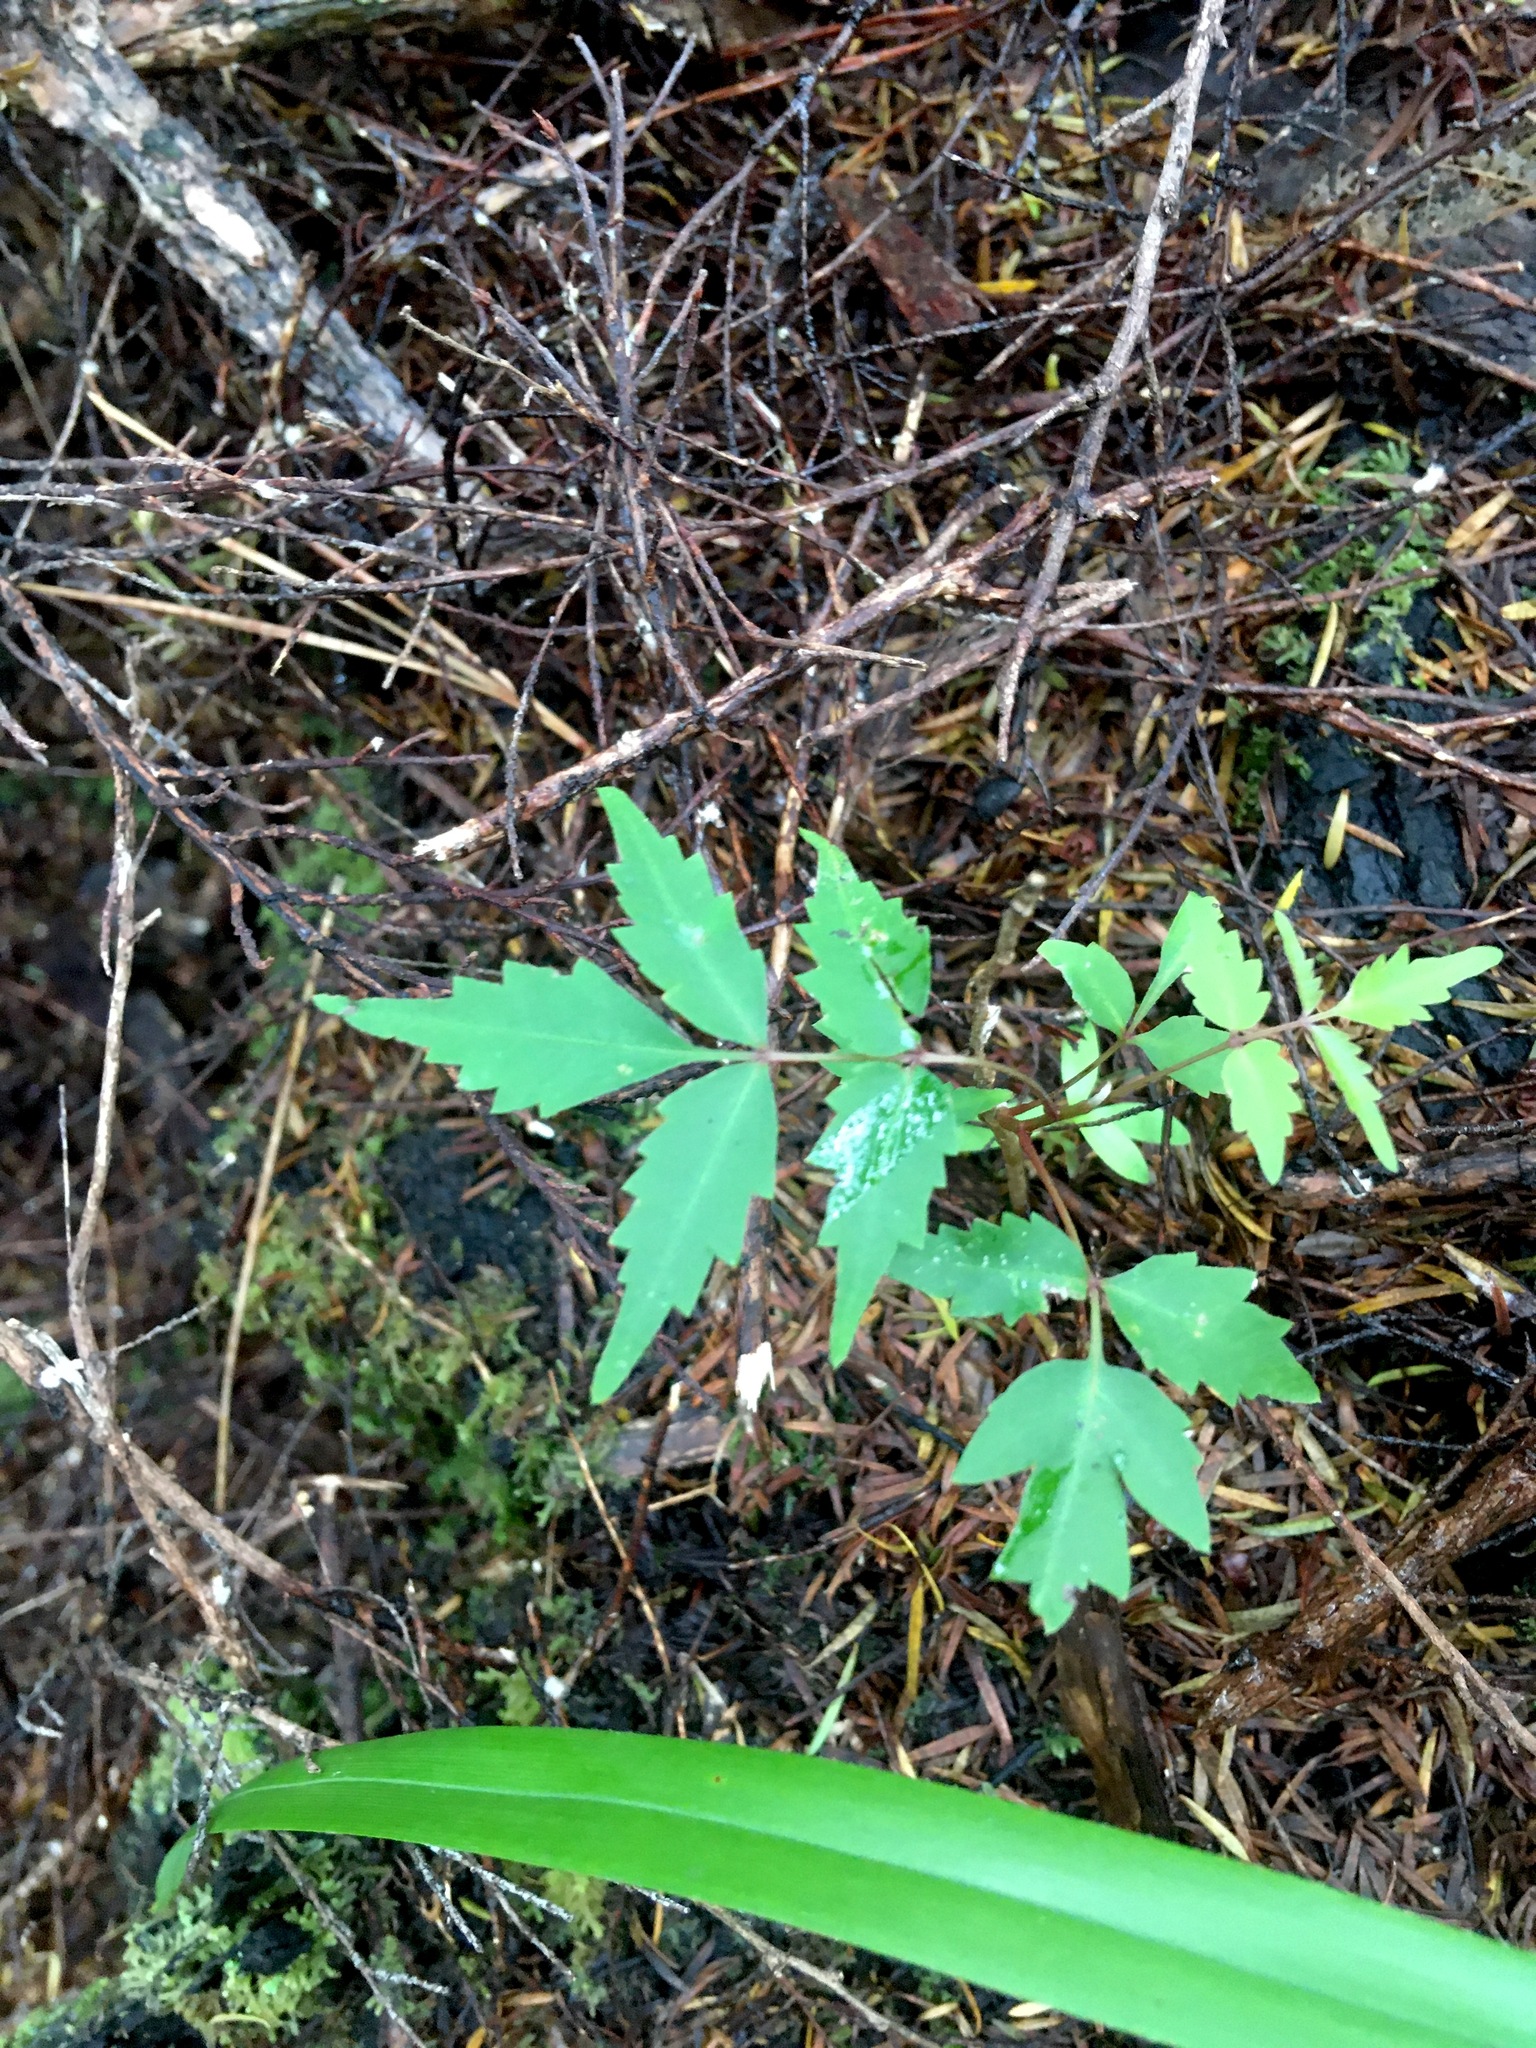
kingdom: Plantae
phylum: Tracheophyta
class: Magnoliopsida
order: Sapindales
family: Simaroubaceae
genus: Ailanthus
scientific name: Ailanthus altissima
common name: Tree-of-heaven
